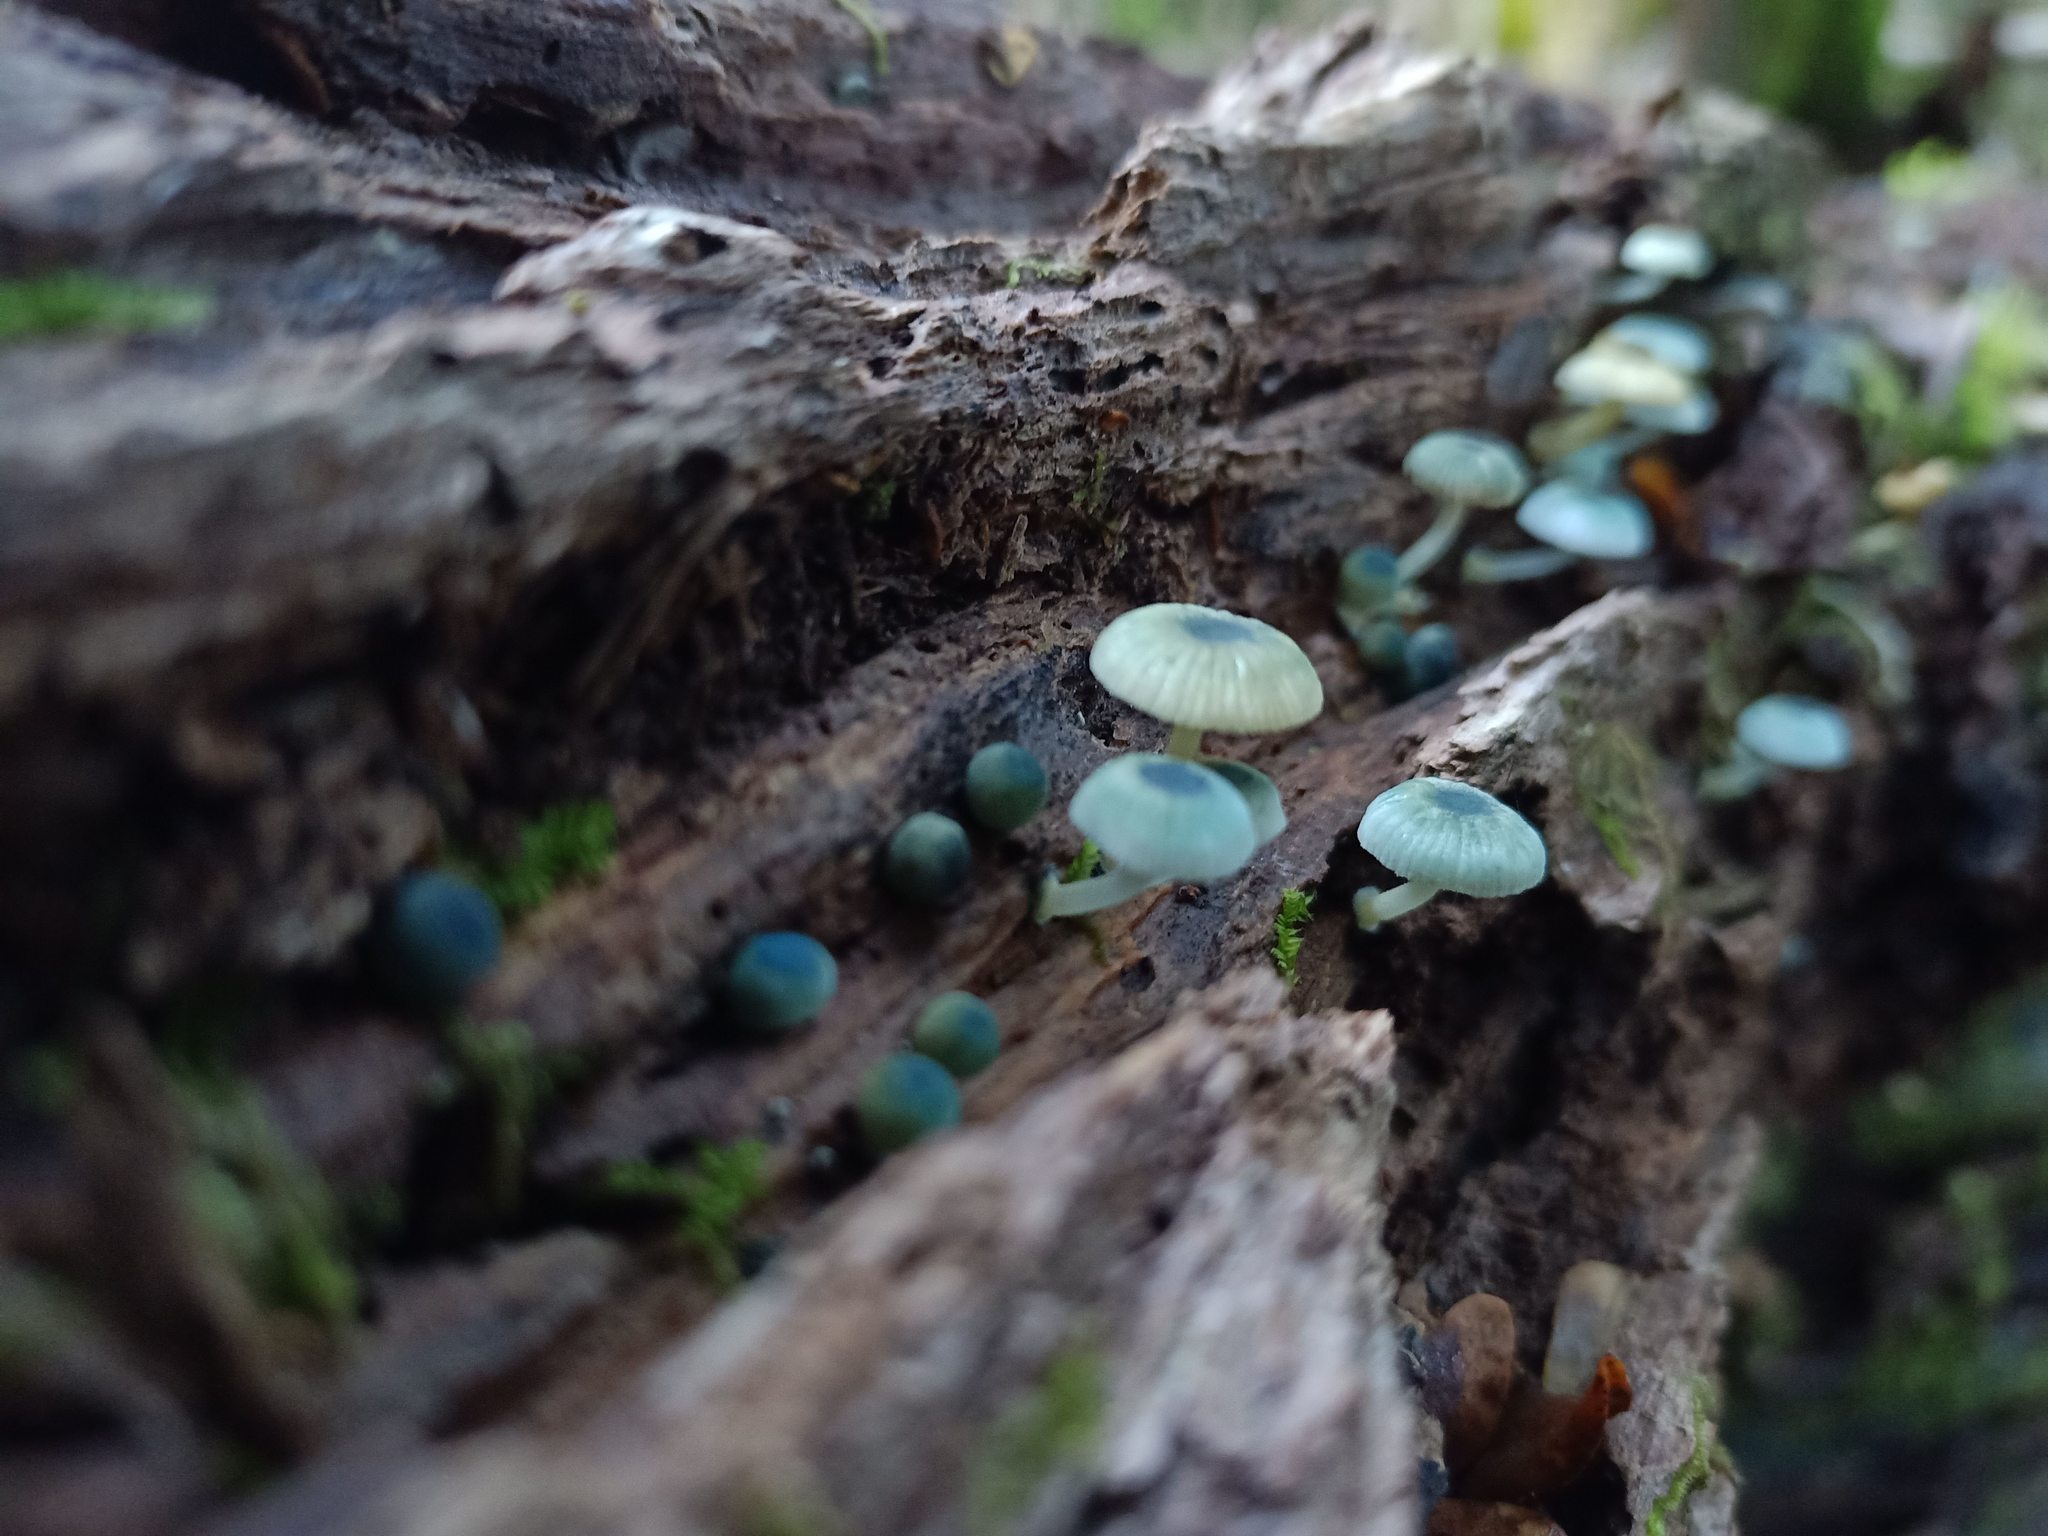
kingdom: Fungi
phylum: Basidiomycota
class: Agaricomycetes
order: Agaricales
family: Mycenaceae
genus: Mycena
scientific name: Mycena interrupta
